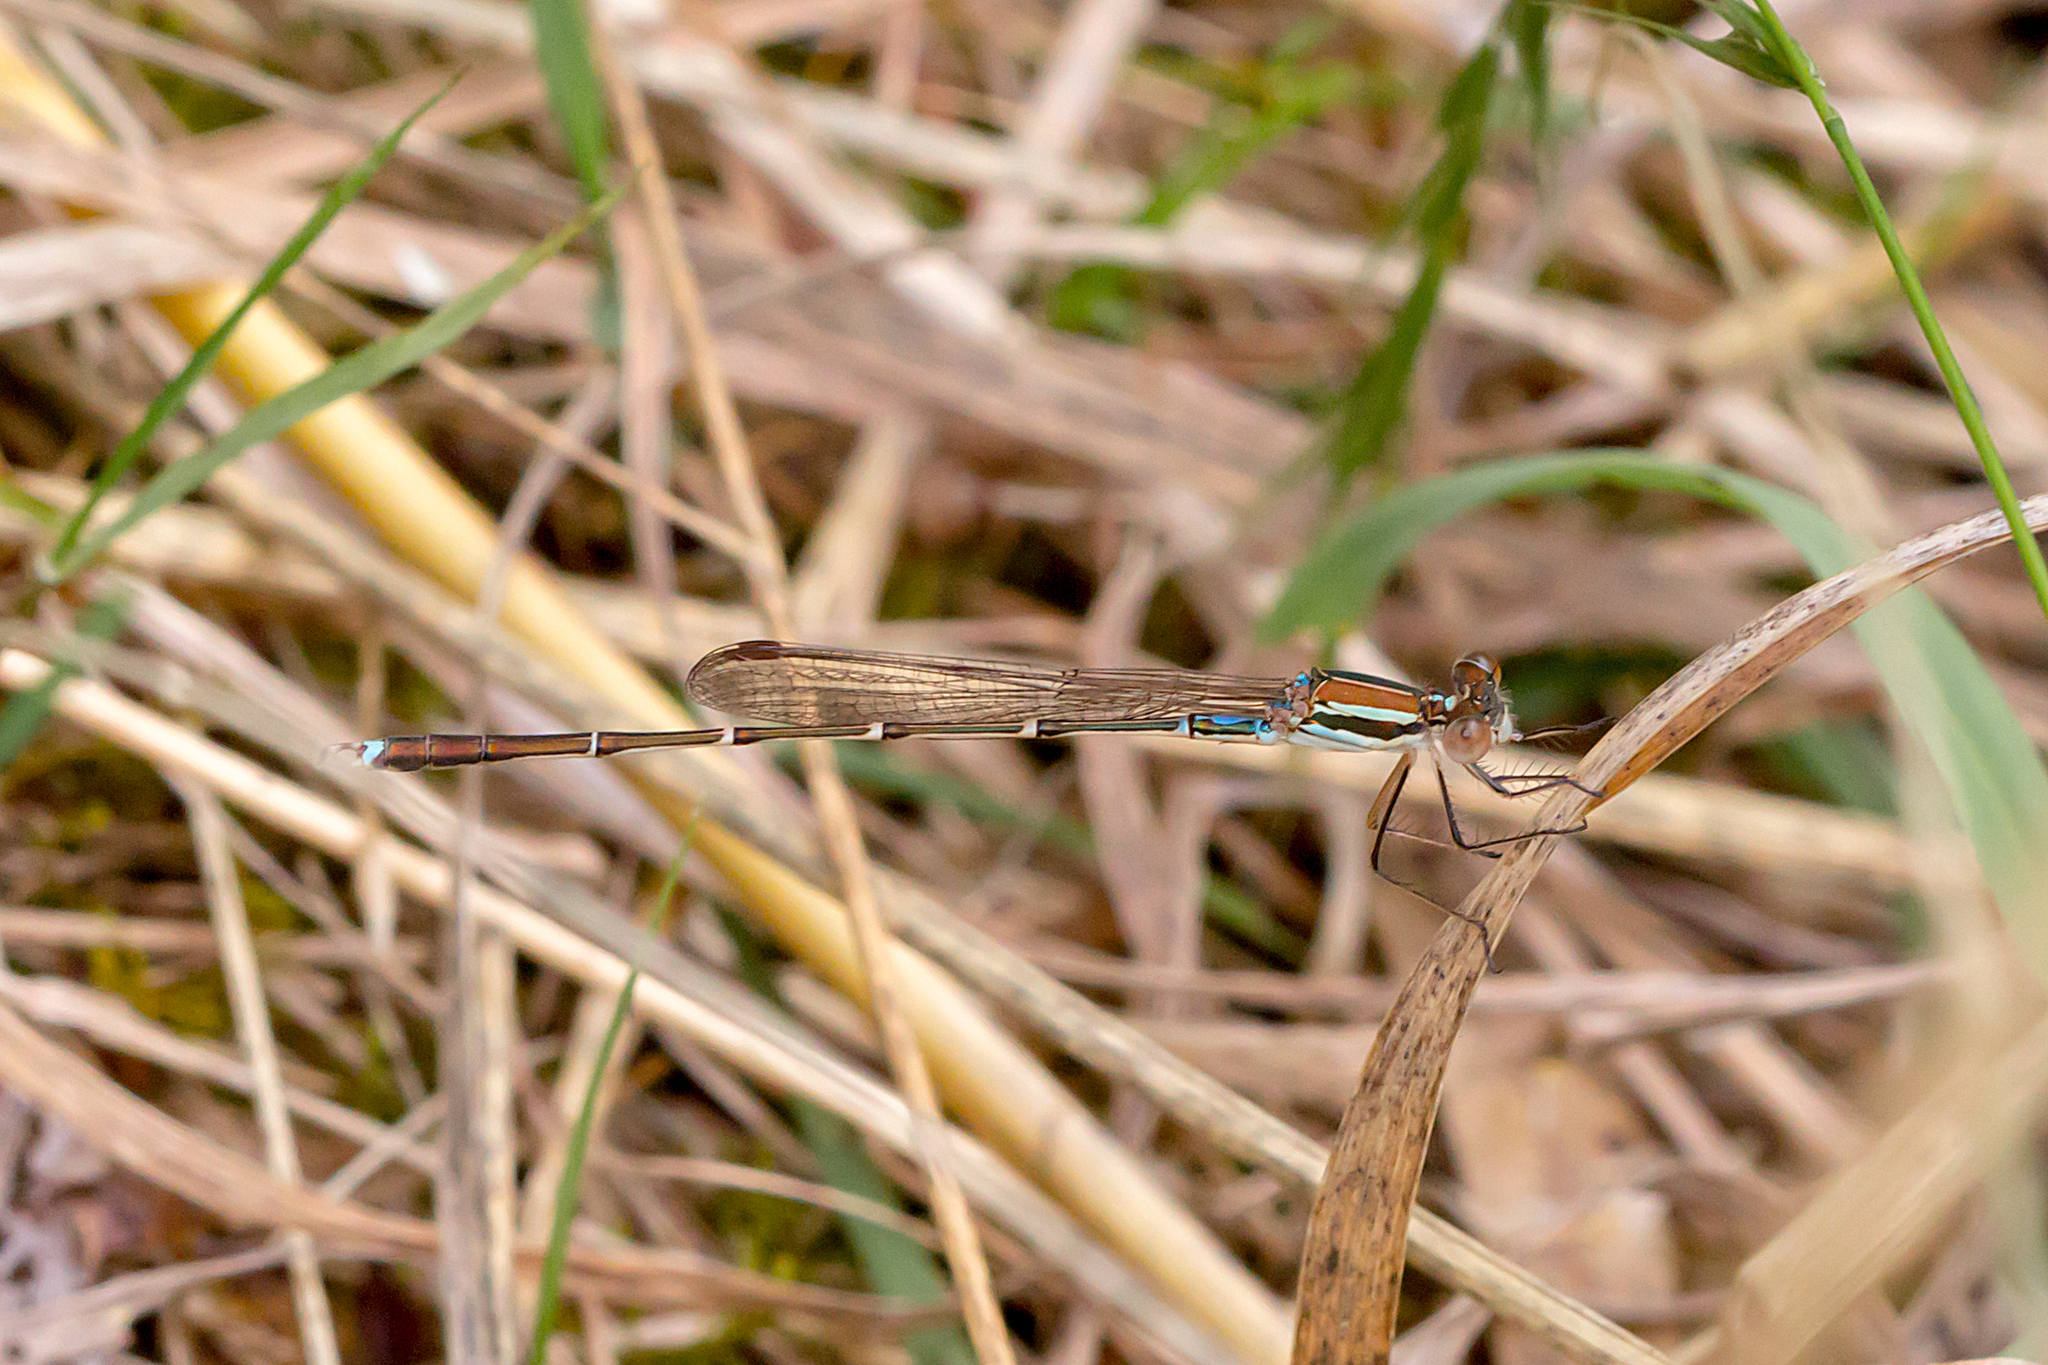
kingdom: Animalia
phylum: Arthropoda
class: Insecta
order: Odonata
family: Lestidae
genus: Austrolestes
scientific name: Austrolestes analis
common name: Slender ringtail
